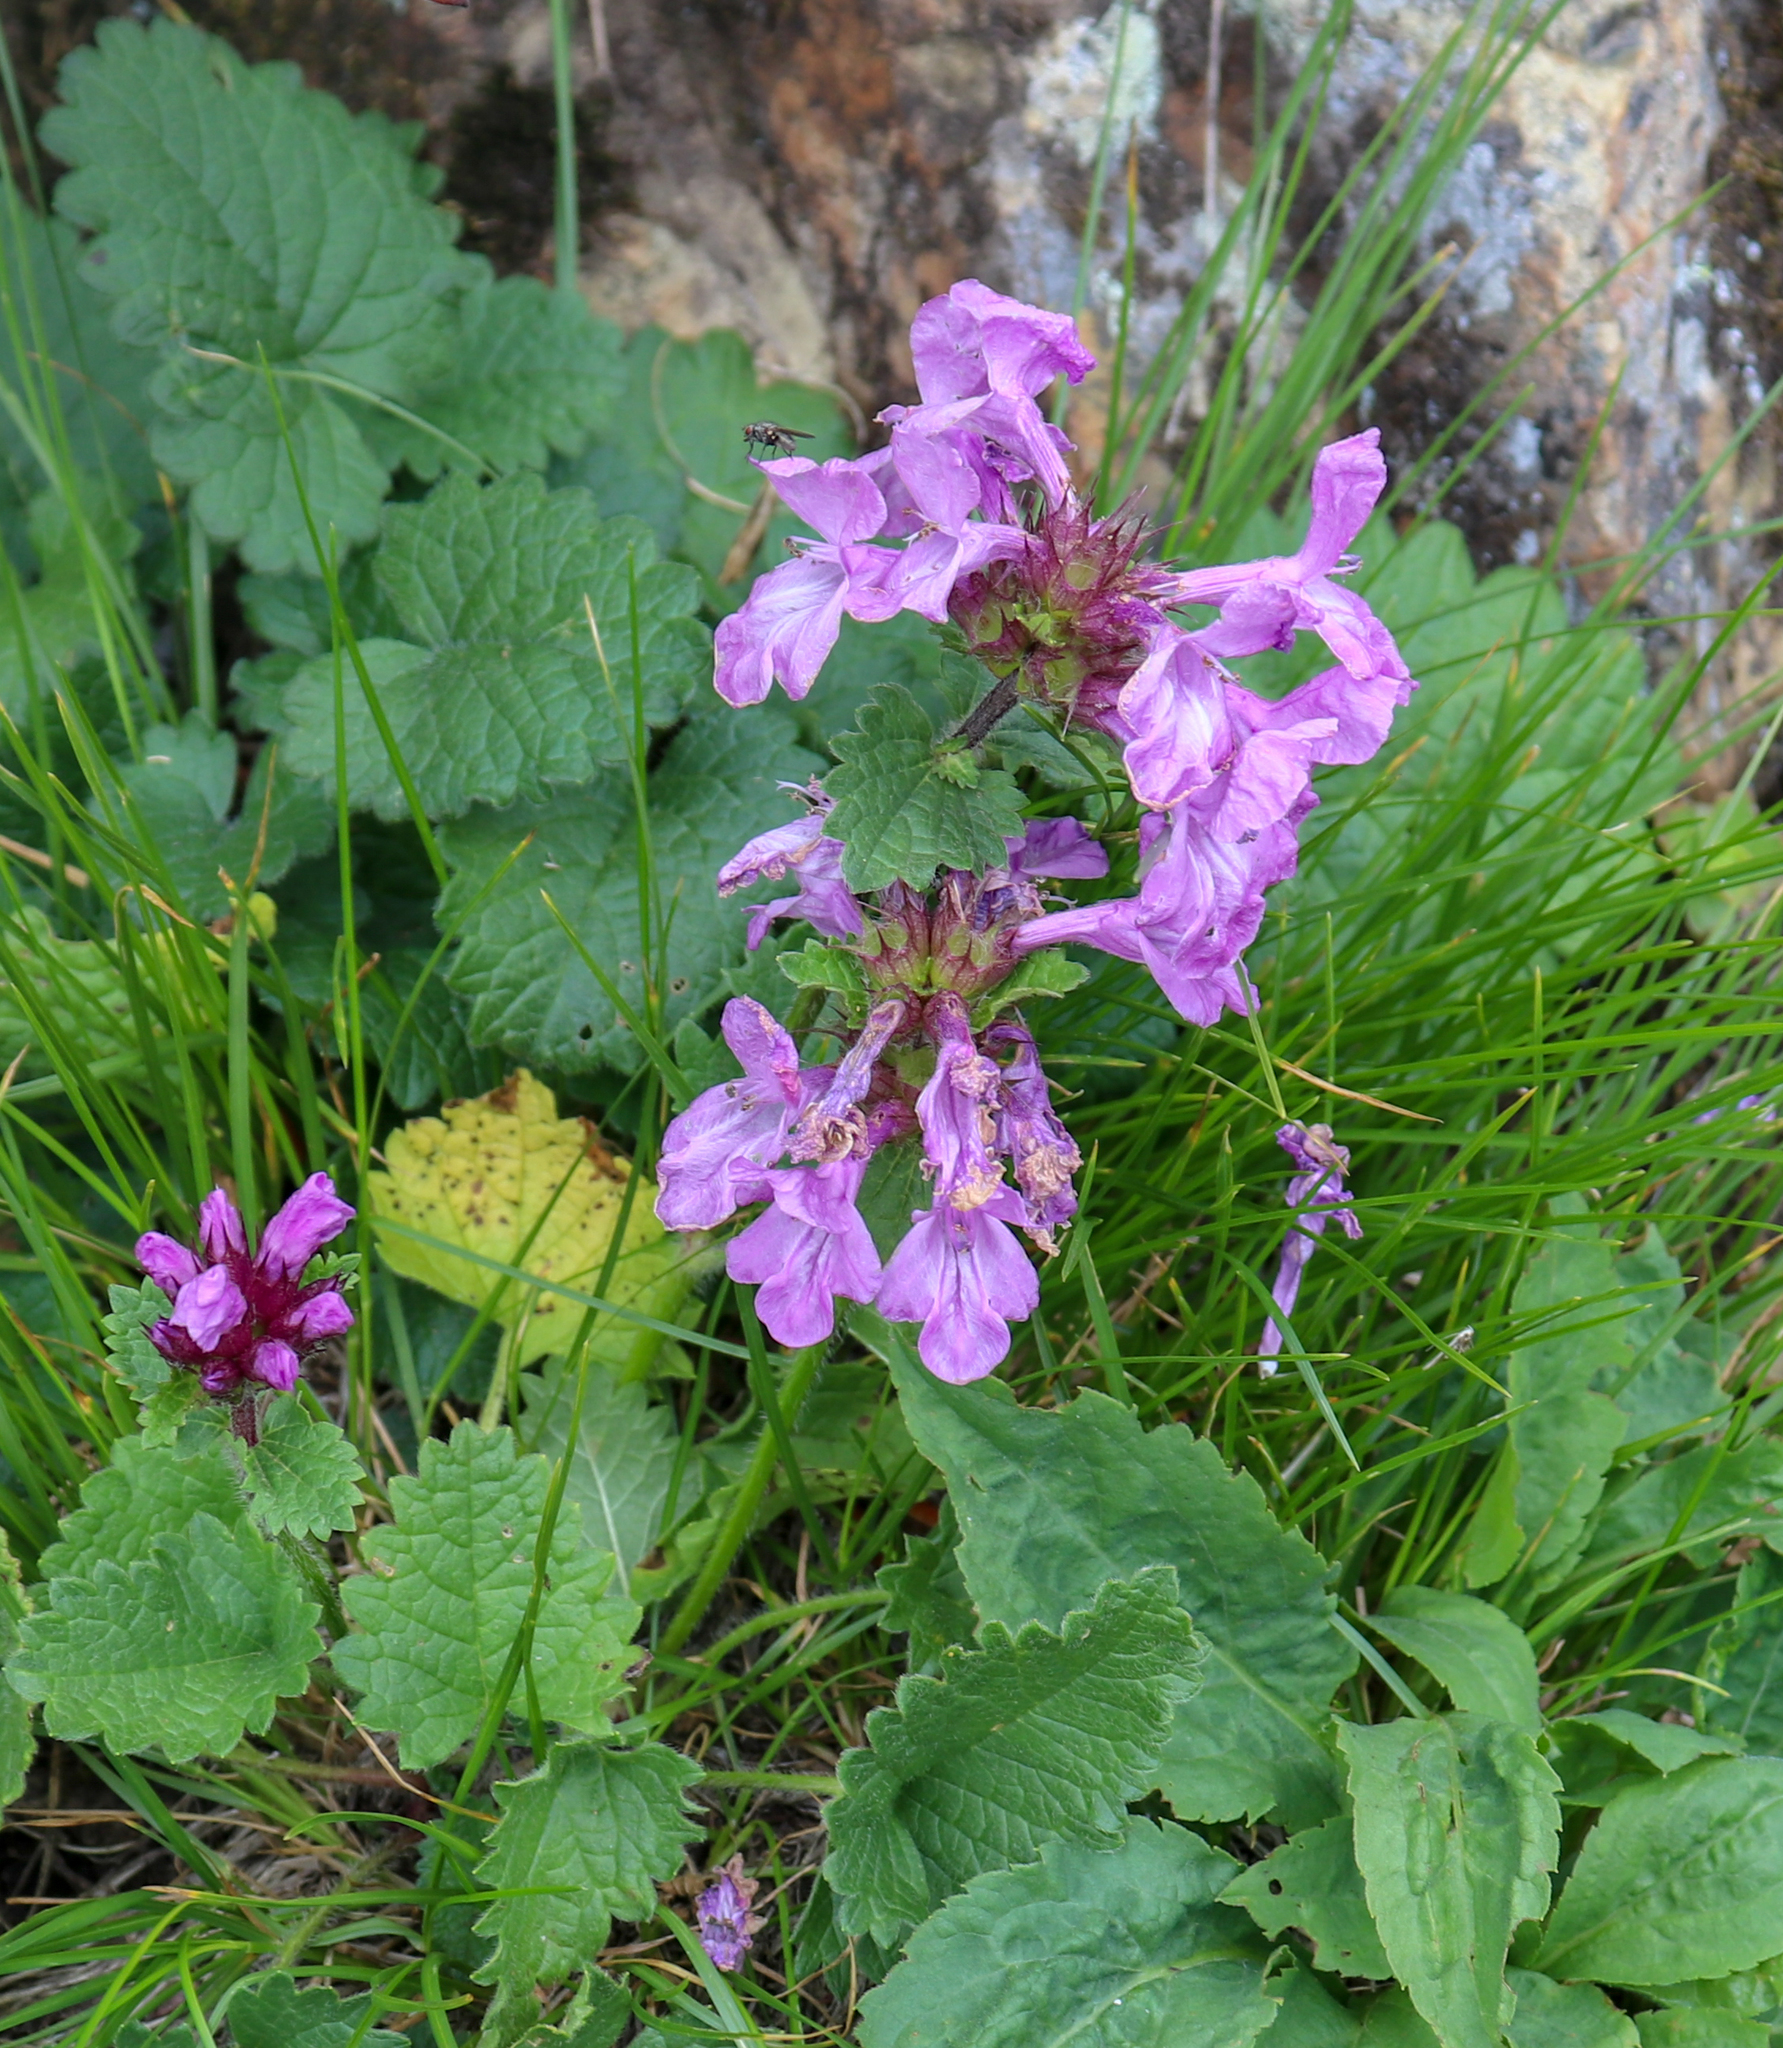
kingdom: Plantae
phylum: Tracheophyta
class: Magnoliopsida
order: Lamiales
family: Lamiaceae
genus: Betonica
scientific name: Betonica macrantha
